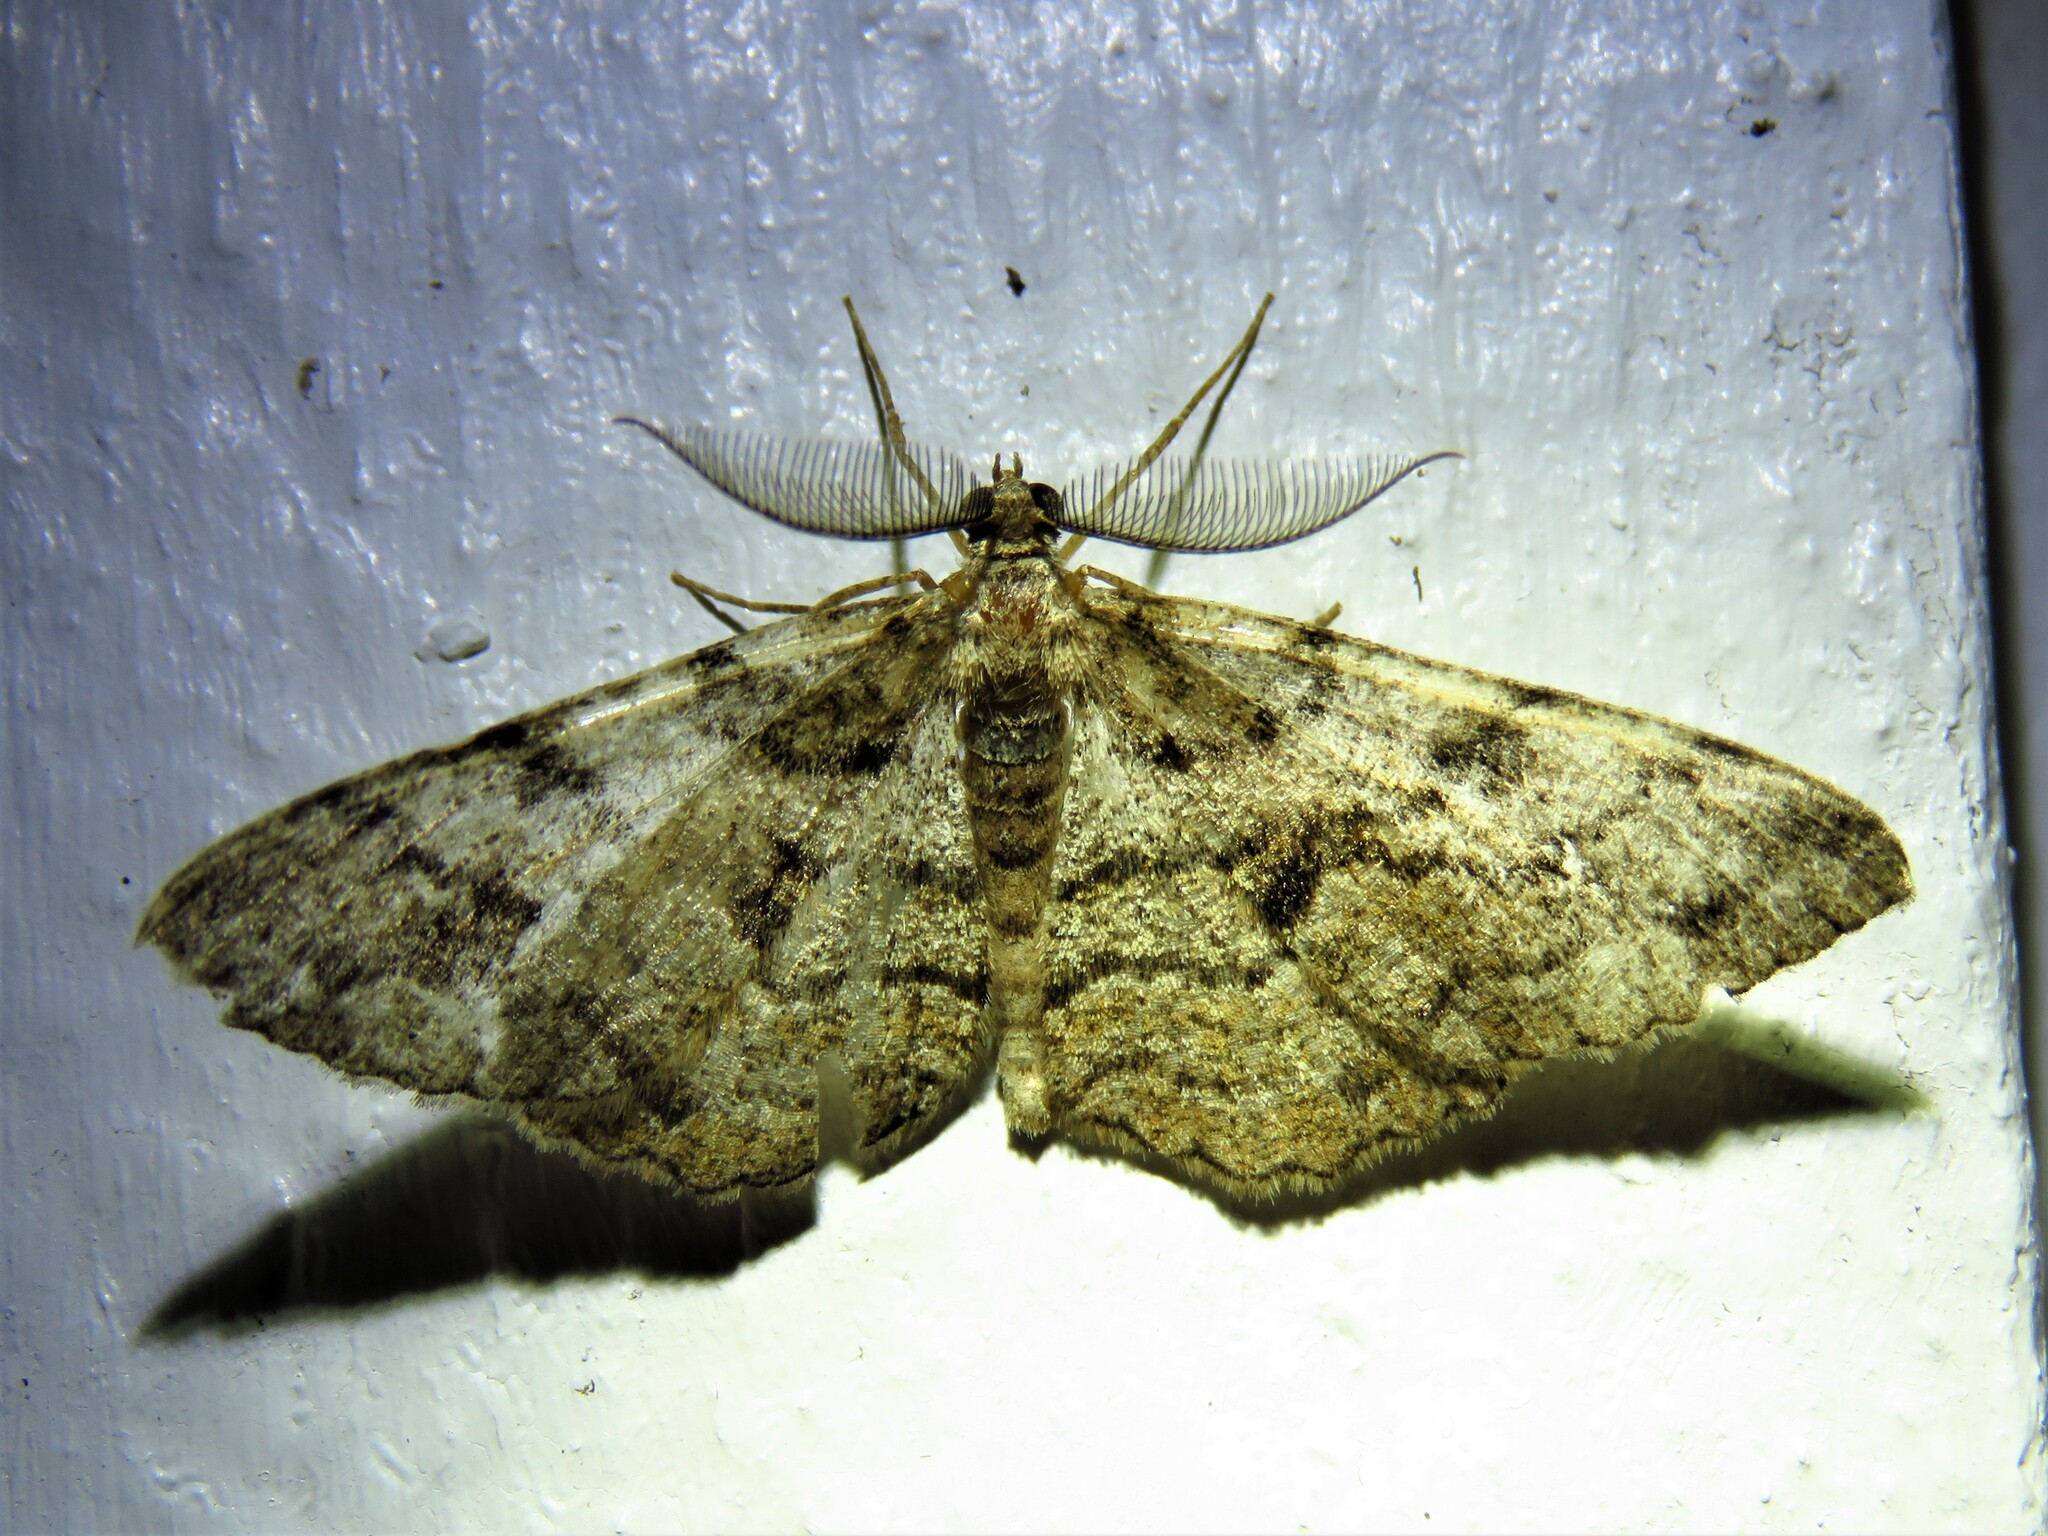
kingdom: Animalia
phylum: Arthropoda
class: Insecta
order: Lepidoptera
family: Geometridae
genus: Peribatodes
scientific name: Peribatodes secundaria
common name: Feathered beauty
